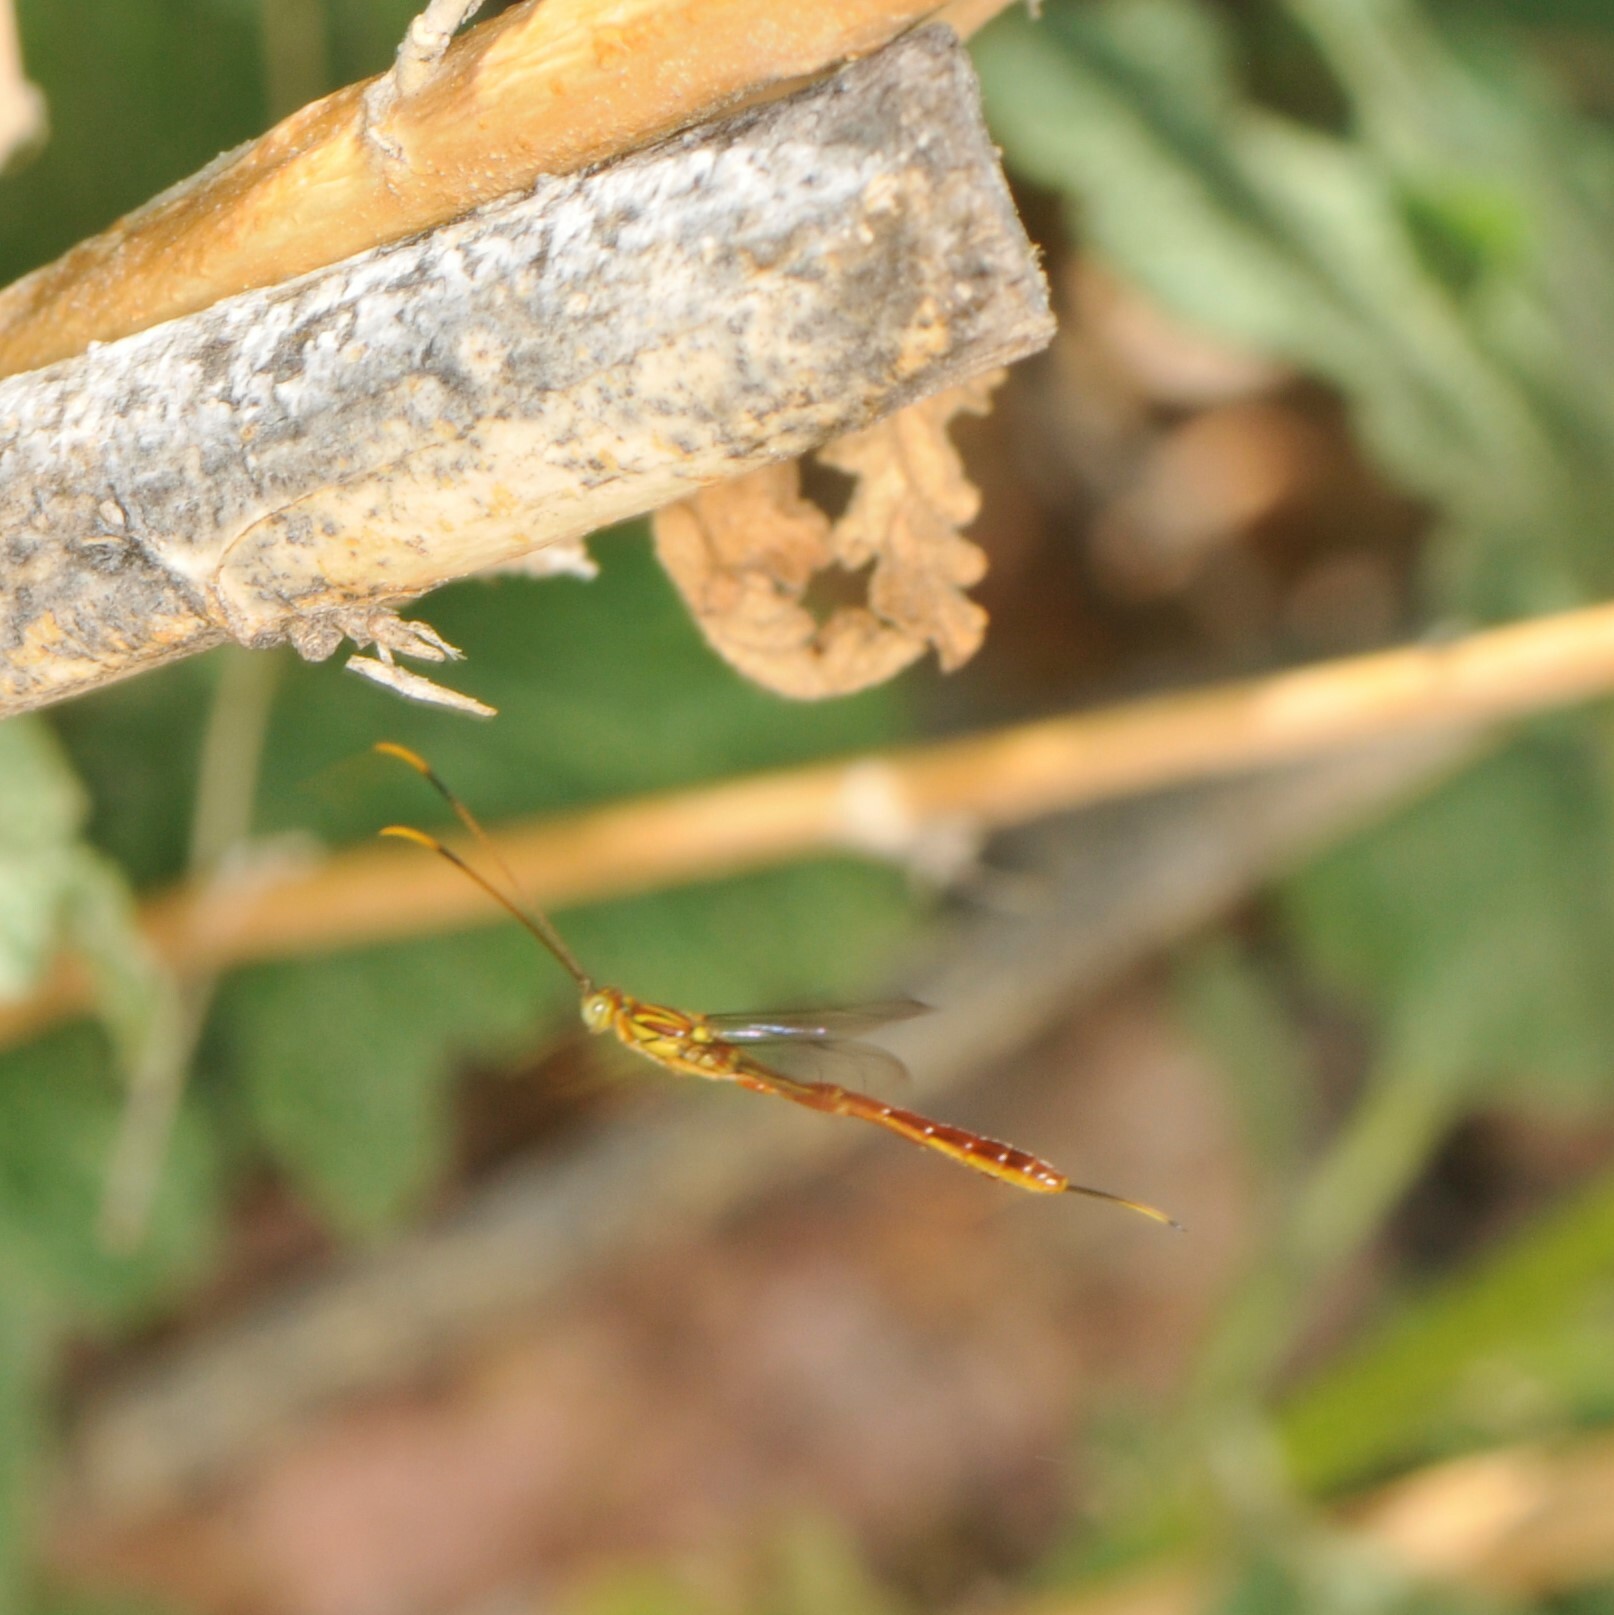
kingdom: Animalia
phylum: Arthropoda
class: Insecta
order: Hymenoptera
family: Ichneumonidae
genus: Grotea
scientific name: Grotea lokii
